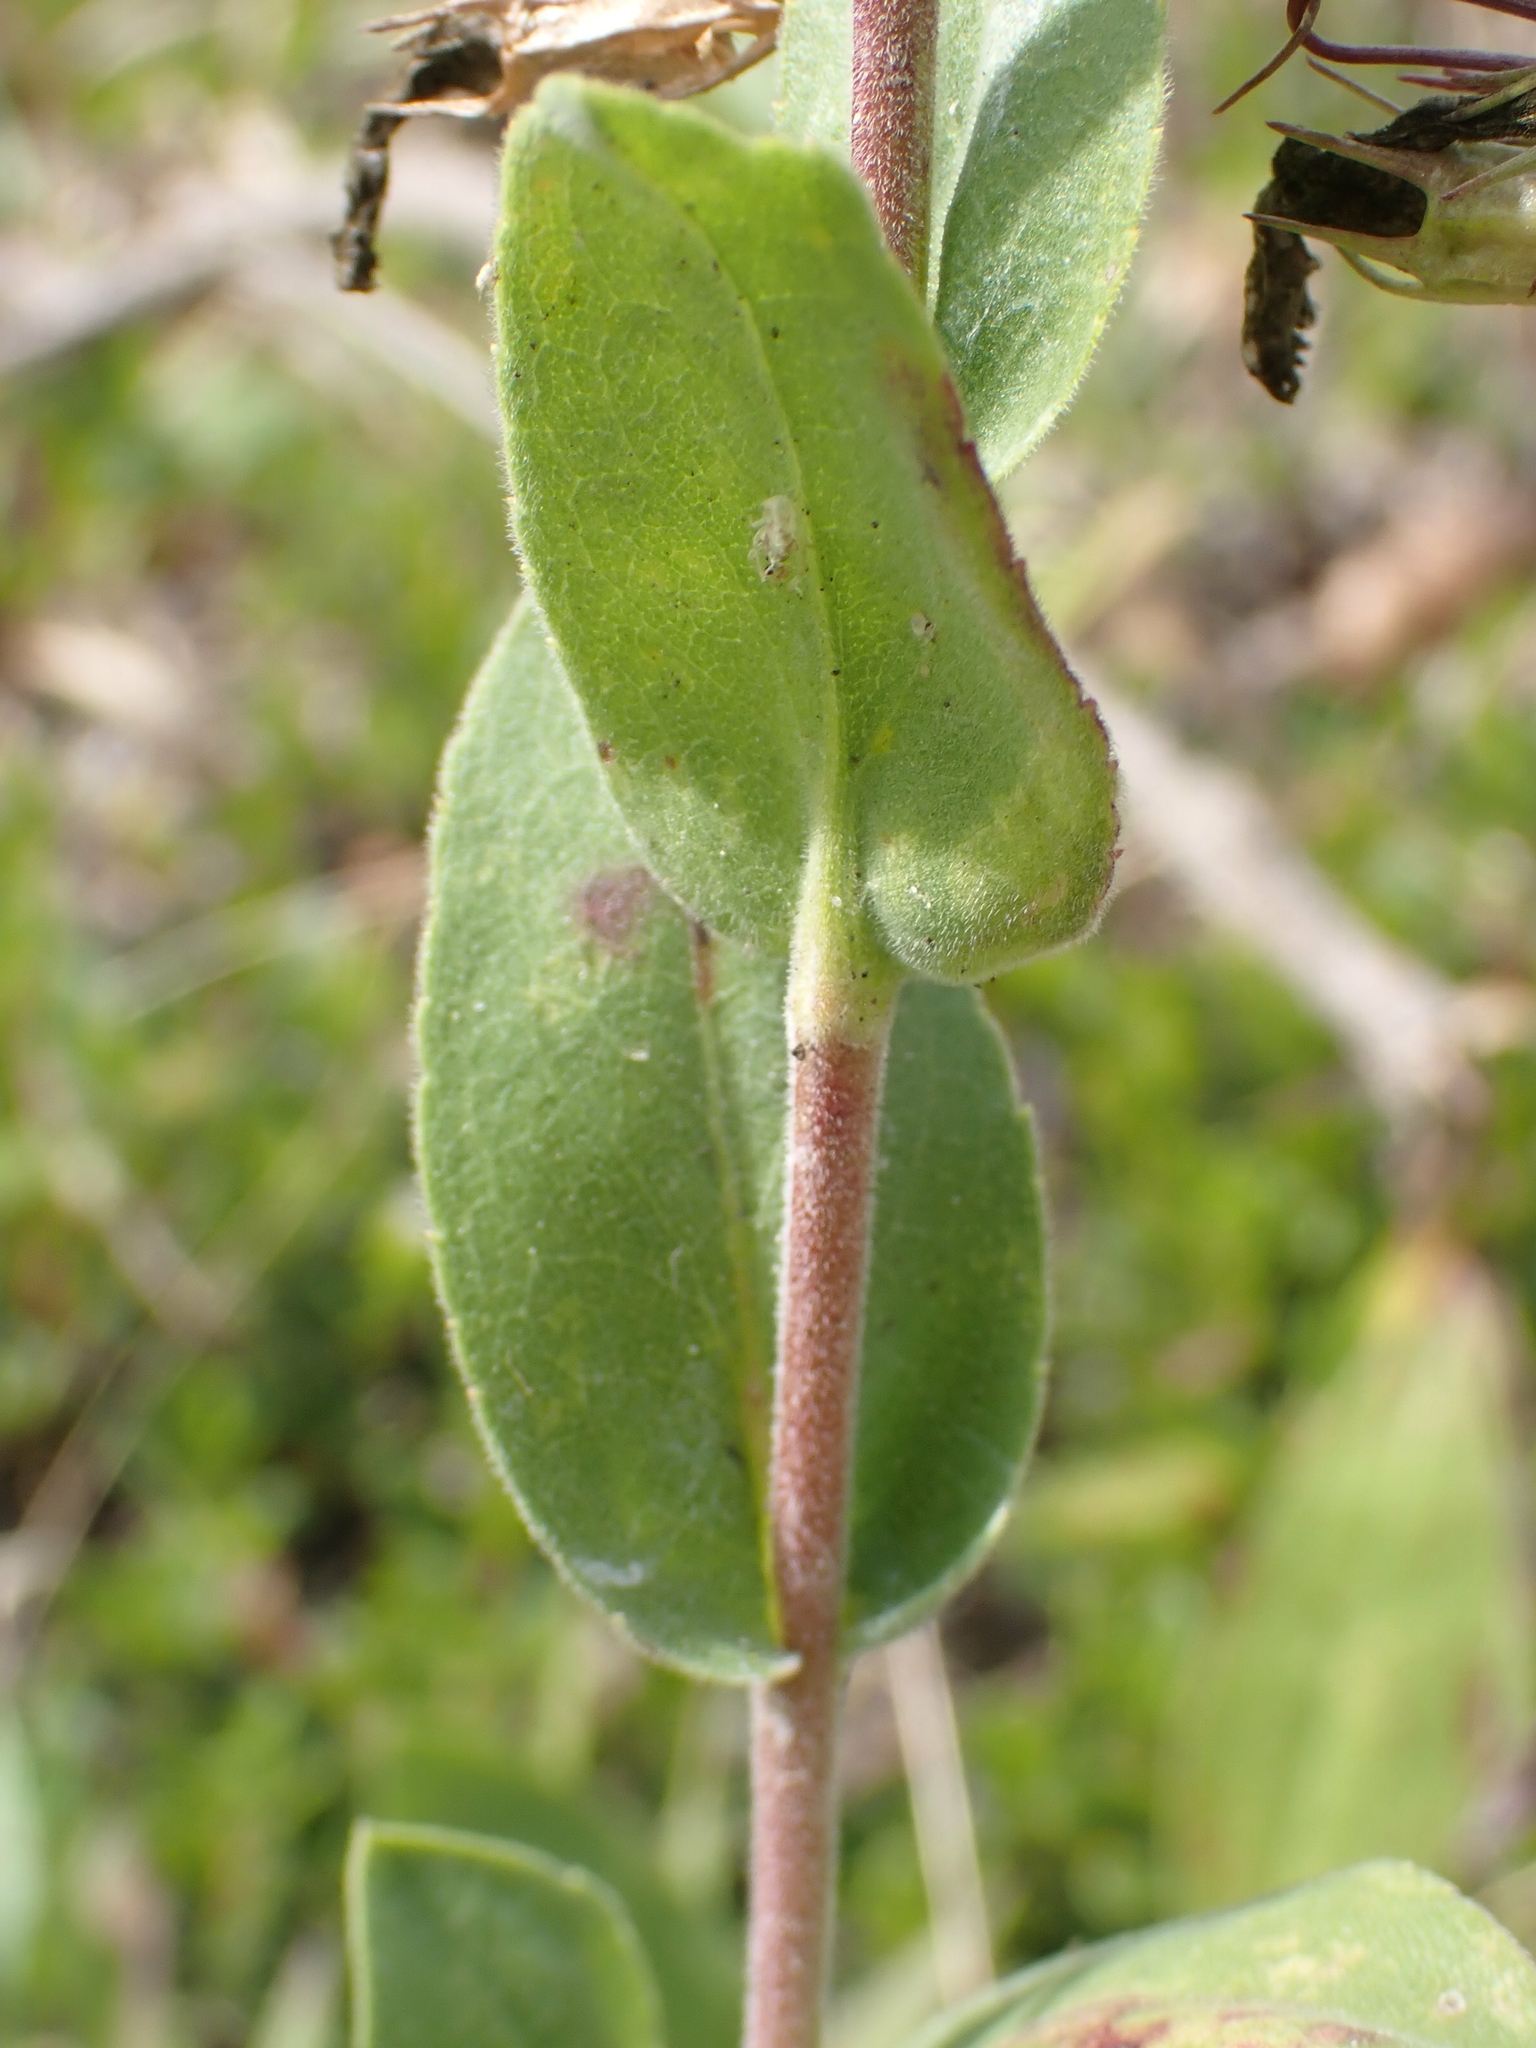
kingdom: Plantae
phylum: Tracheophyta
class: Magnoliopsida
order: Asterales
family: Asteraceae
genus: Solidago
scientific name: Solidago rigida
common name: Rigid goldenrod
